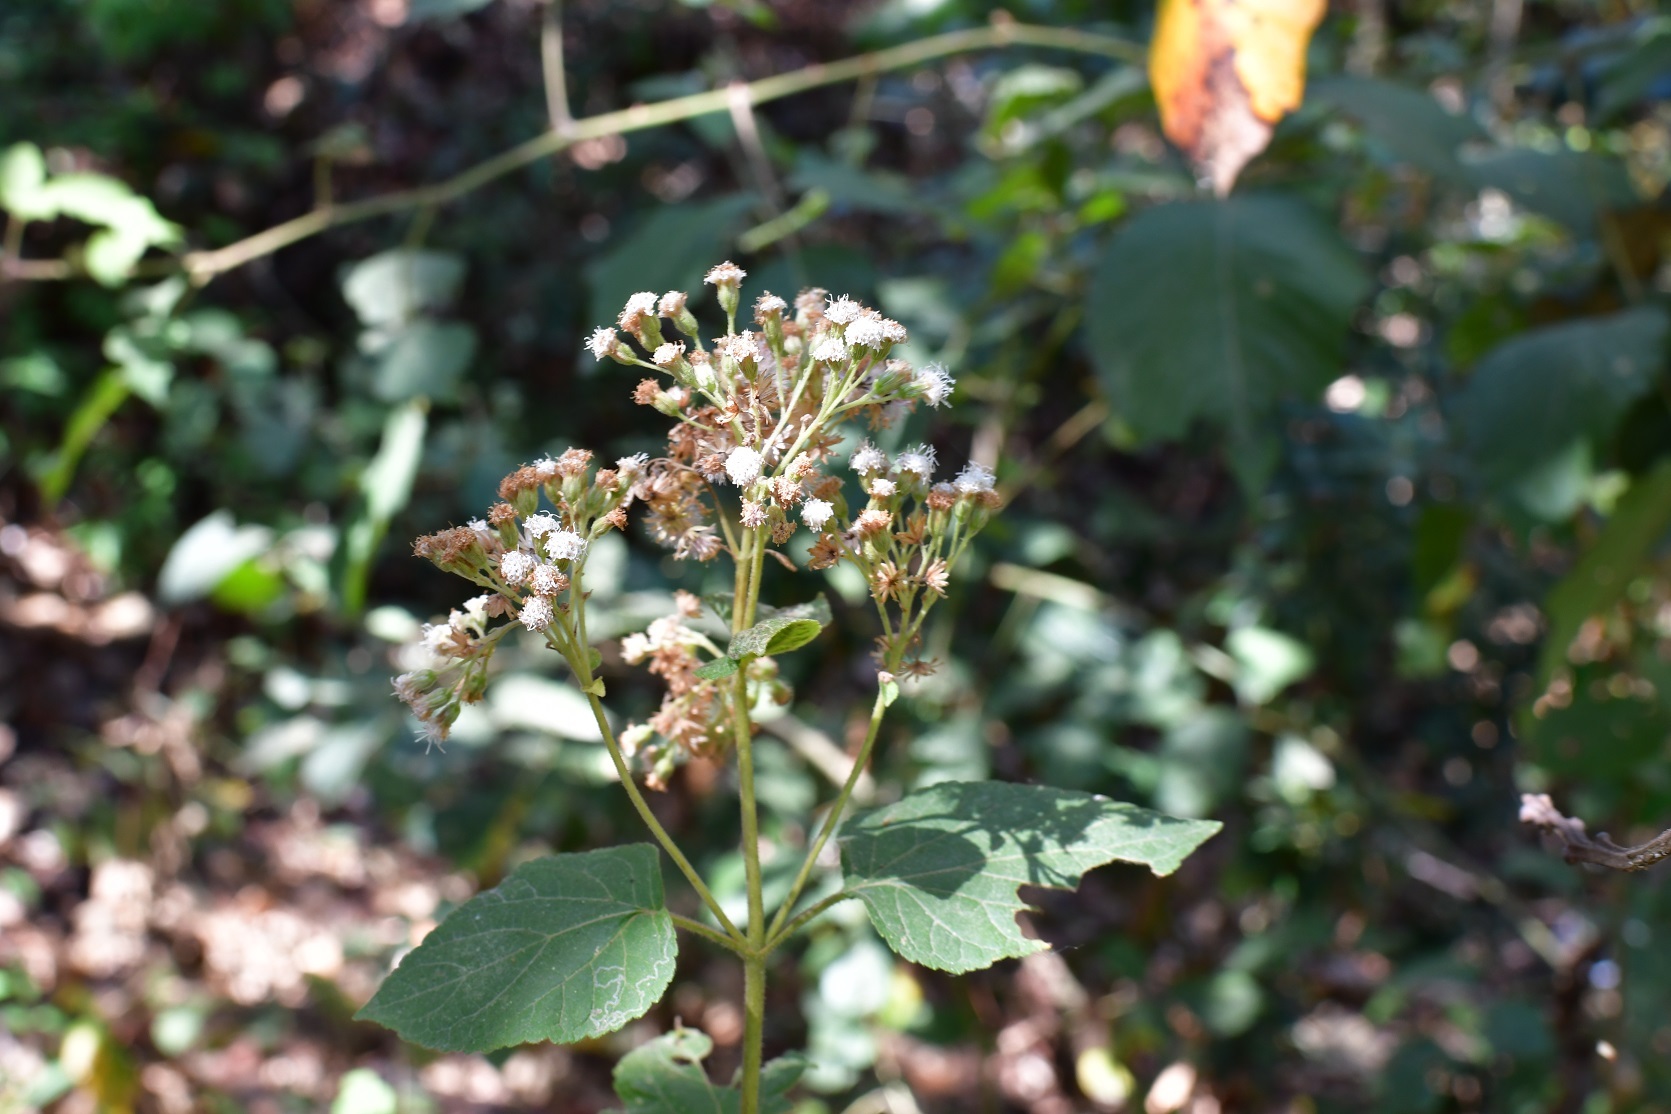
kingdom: Plantae
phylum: Tracheophyta
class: Magnoliopsida
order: Asterales
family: Asteraceae
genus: Ageratina
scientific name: Ageratina vernalis
